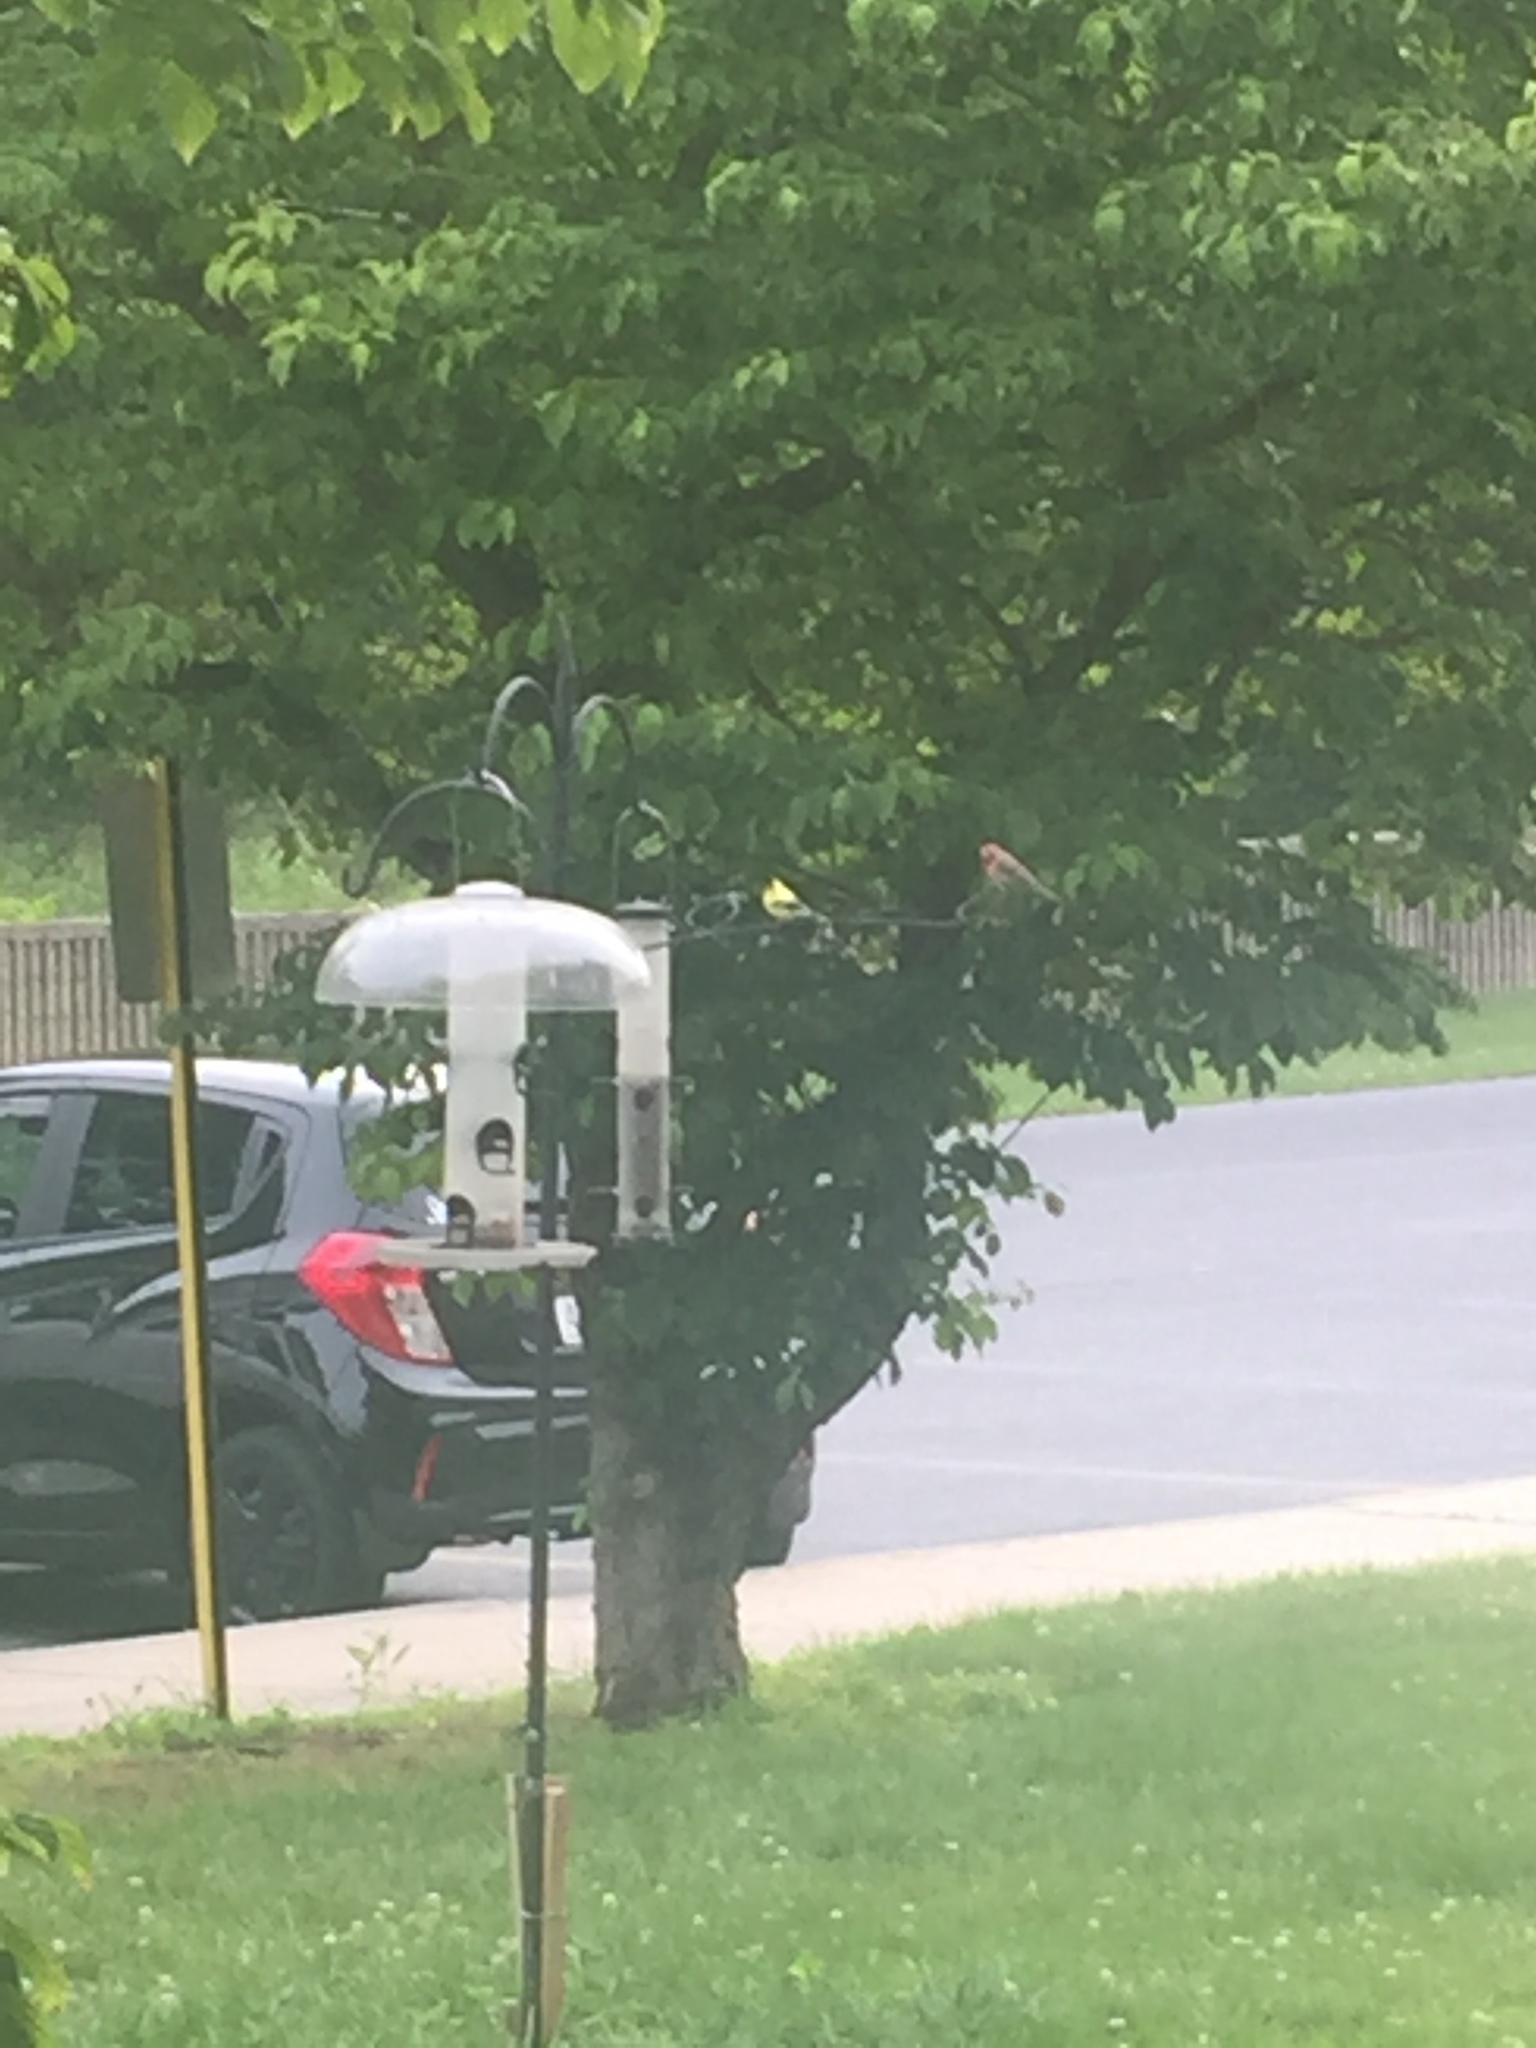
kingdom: Animalia
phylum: Chordata
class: Aves
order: Passeriformes
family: Fringillidae
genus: Spinus
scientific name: Spinus tristis
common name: American goldfinch
